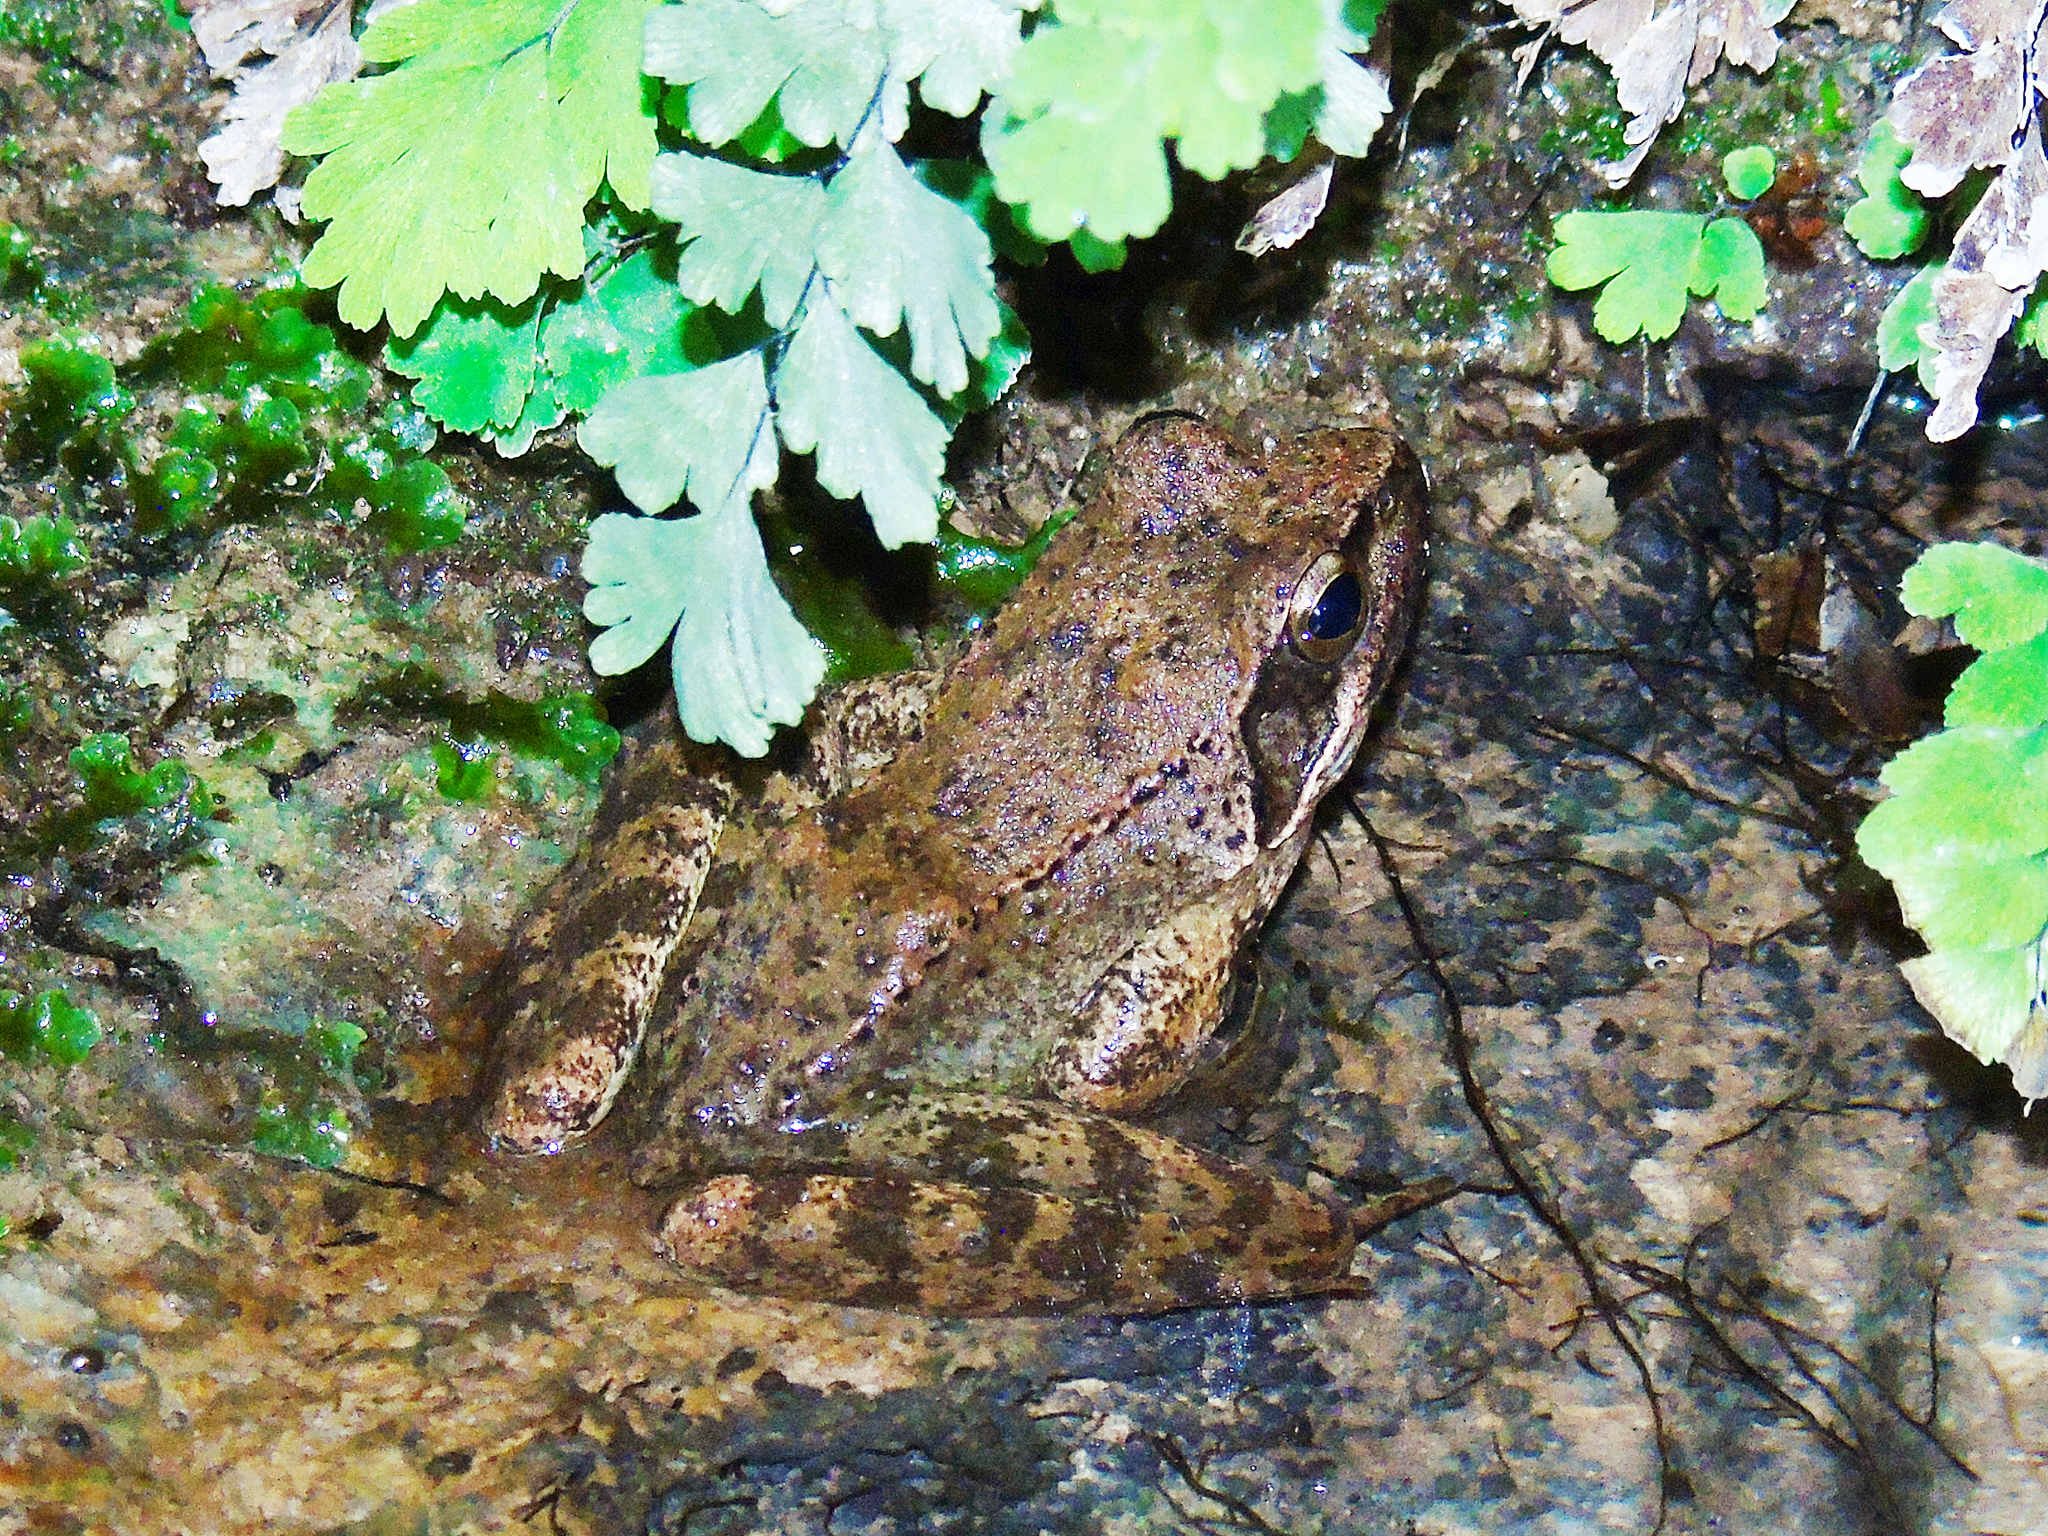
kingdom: Animalia
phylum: Chordata
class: Amphibia
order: Anura
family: Ranidae
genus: Rana
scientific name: Rana graeca
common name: Greek stream frog
